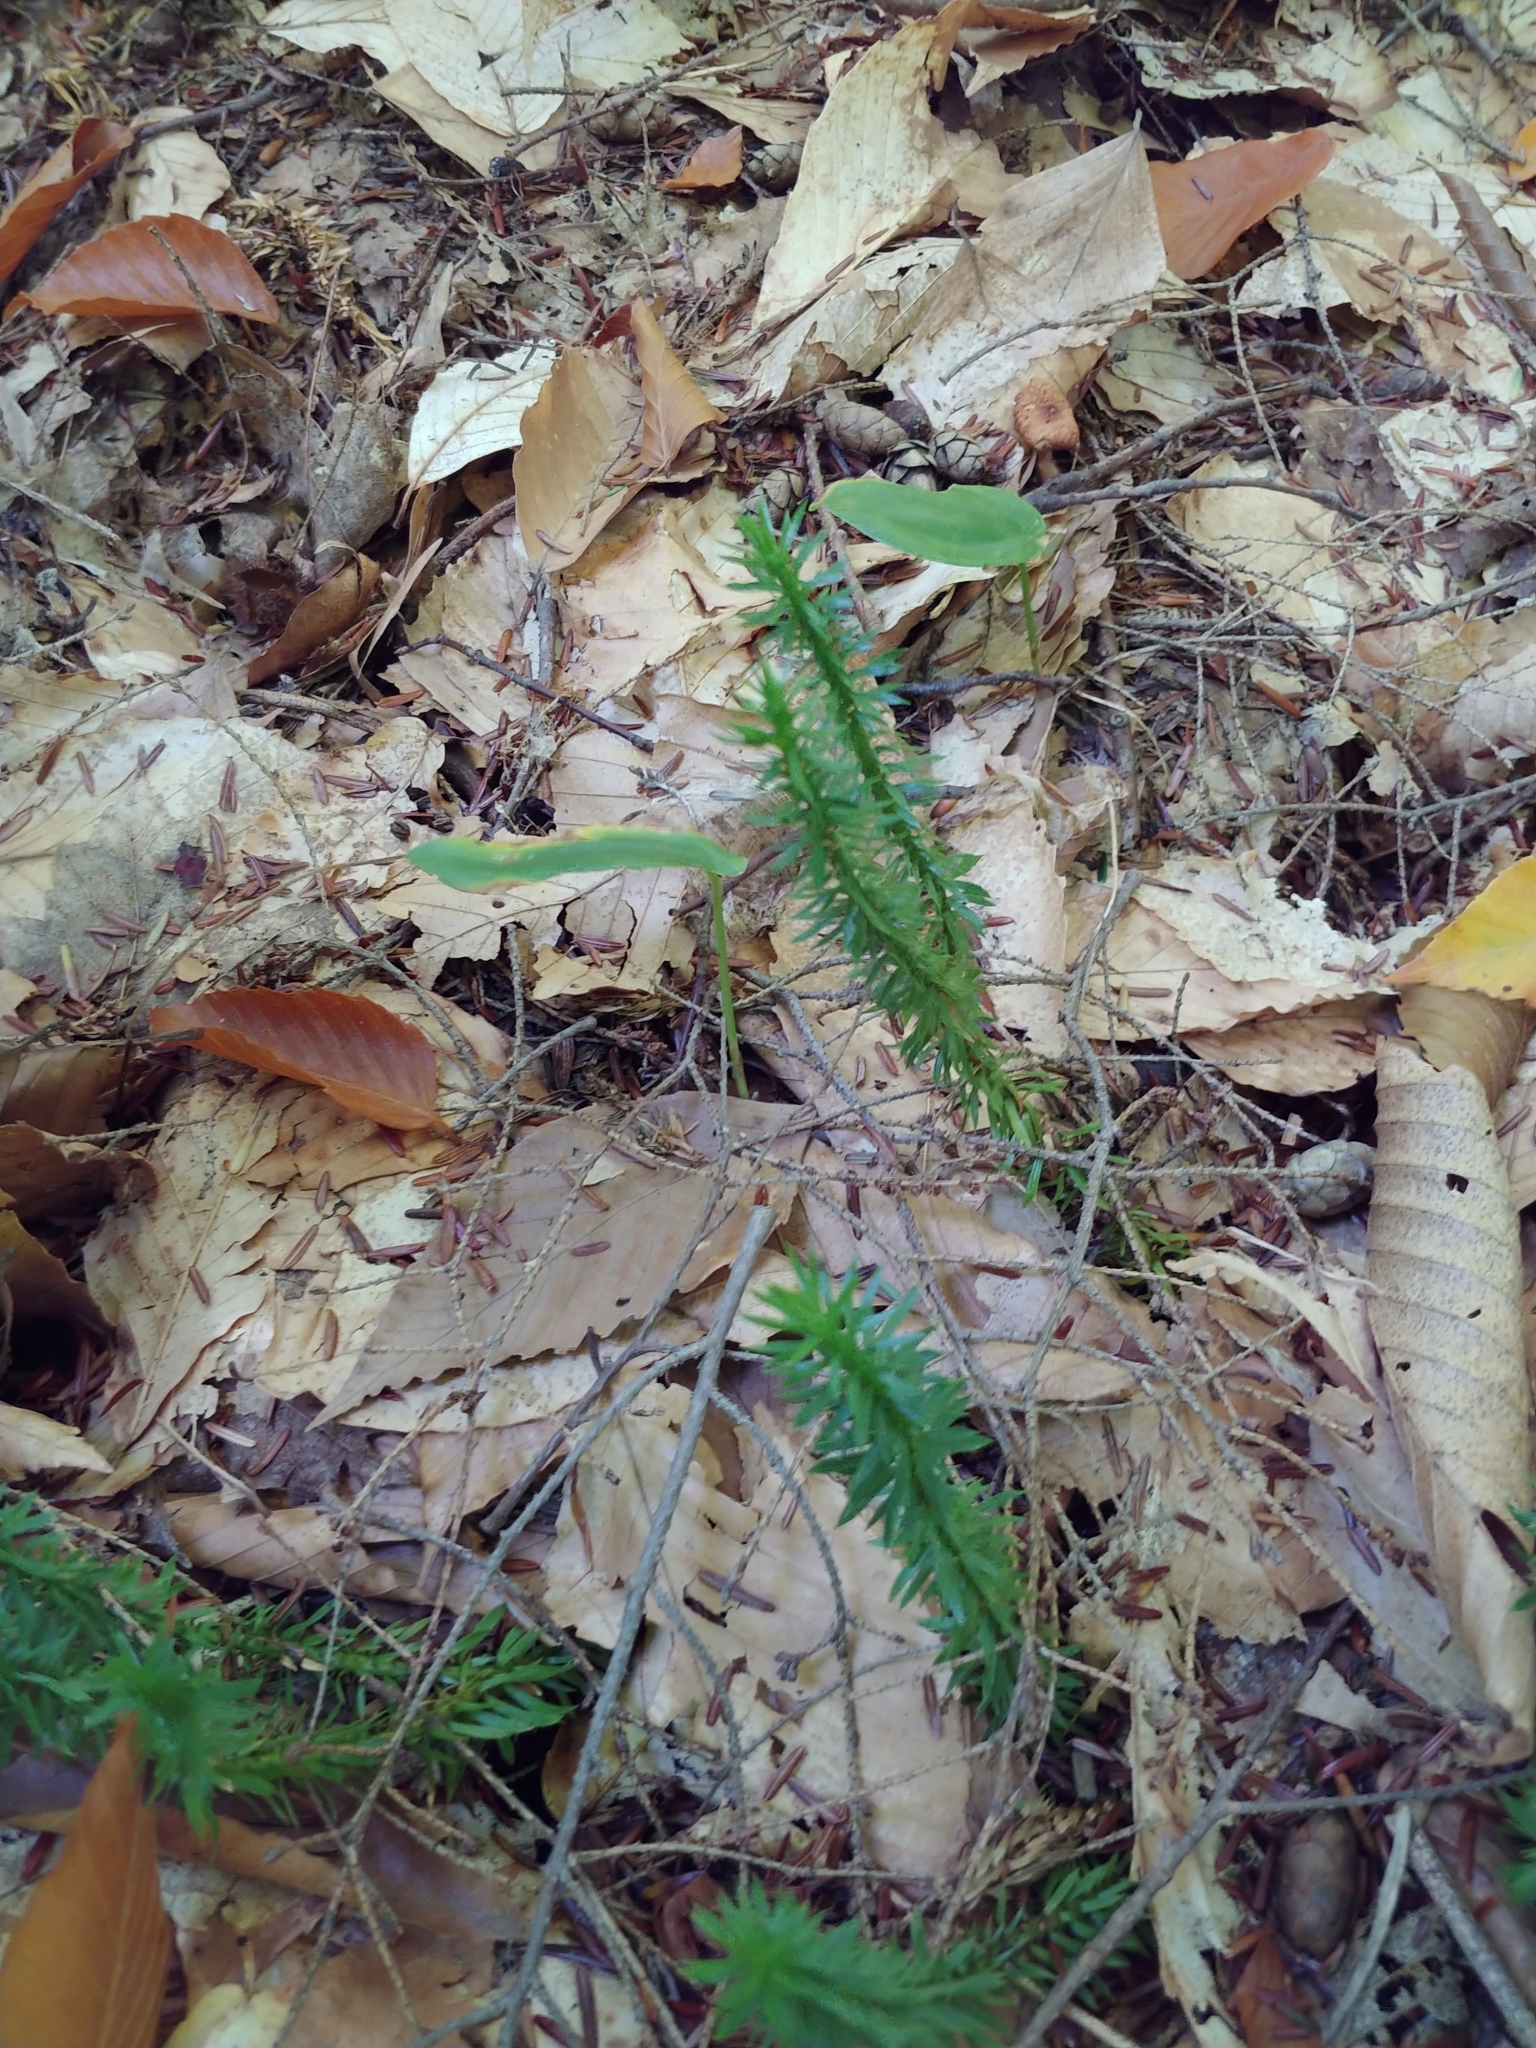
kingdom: Plantae
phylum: Tracheophyta
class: Lycopodiopsida
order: Lycopodiales
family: Lycopodiaceae
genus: Huperzia
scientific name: Huperzia lucidula
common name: Shining clubmoss
